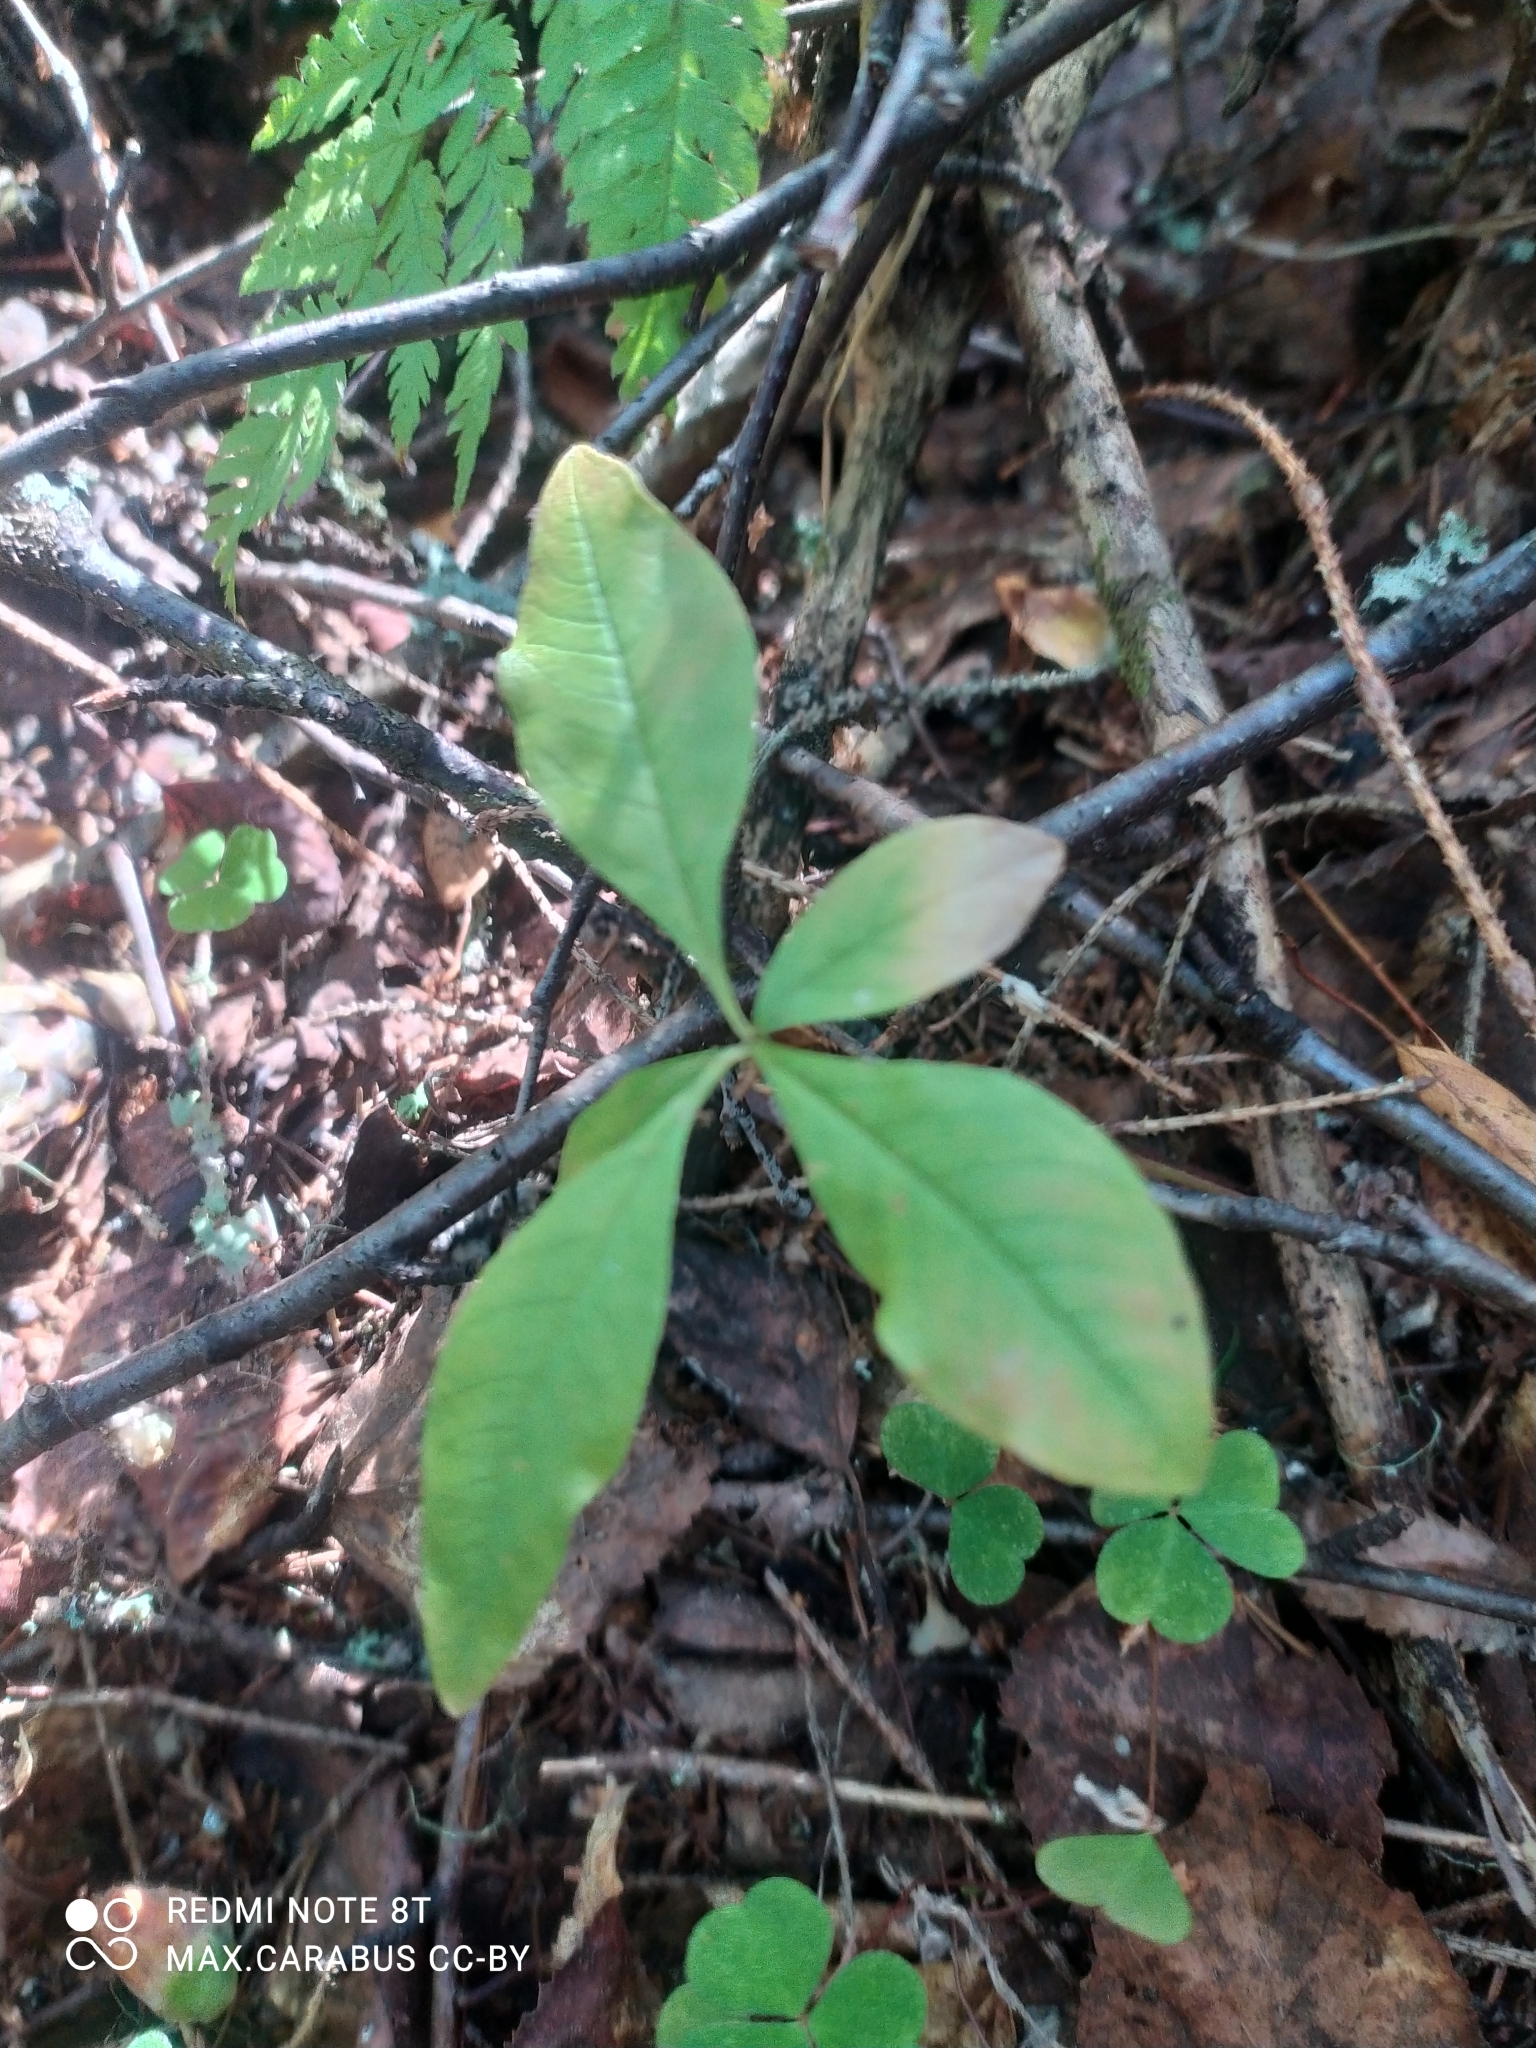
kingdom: Plantae
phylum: Tracheophyta
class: Magnoliopsida
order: Ericales
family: Primulaceae
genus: Lysimachia
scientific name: Lysimachia europaea
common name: Arctic starflower
